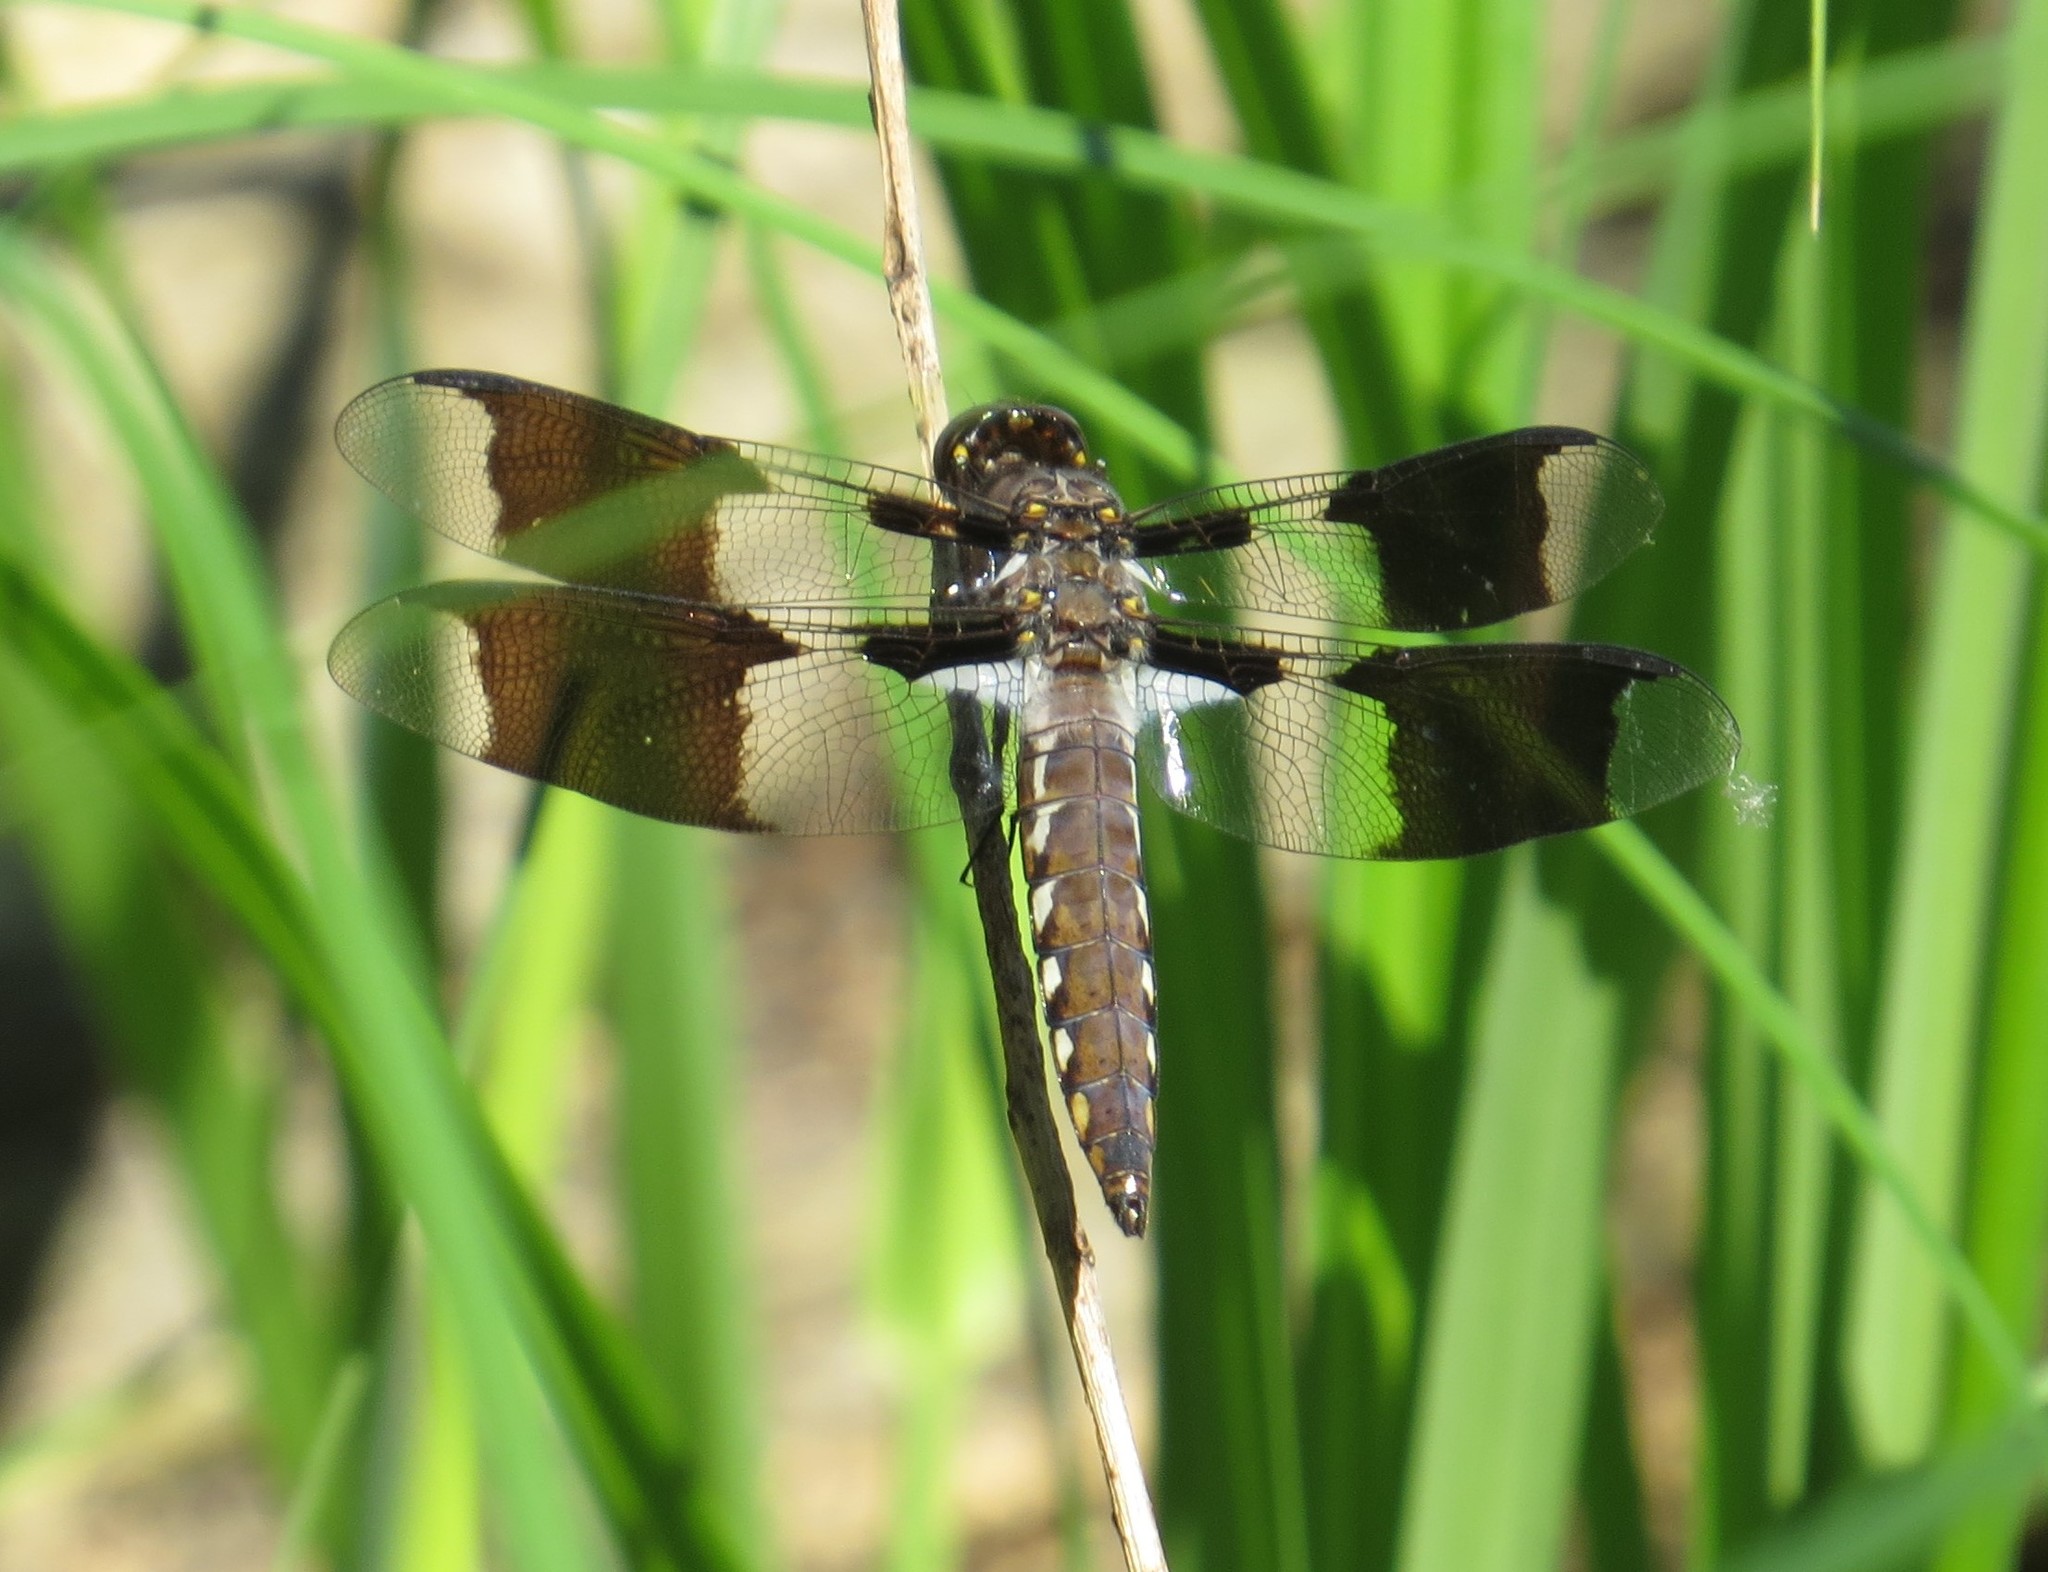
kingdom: Animalia
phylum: Arthropoda
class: Insecta
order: Odonata
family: Libellulidae
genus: Plathemis
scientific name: Plathemis lydia
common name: Common whitetail
